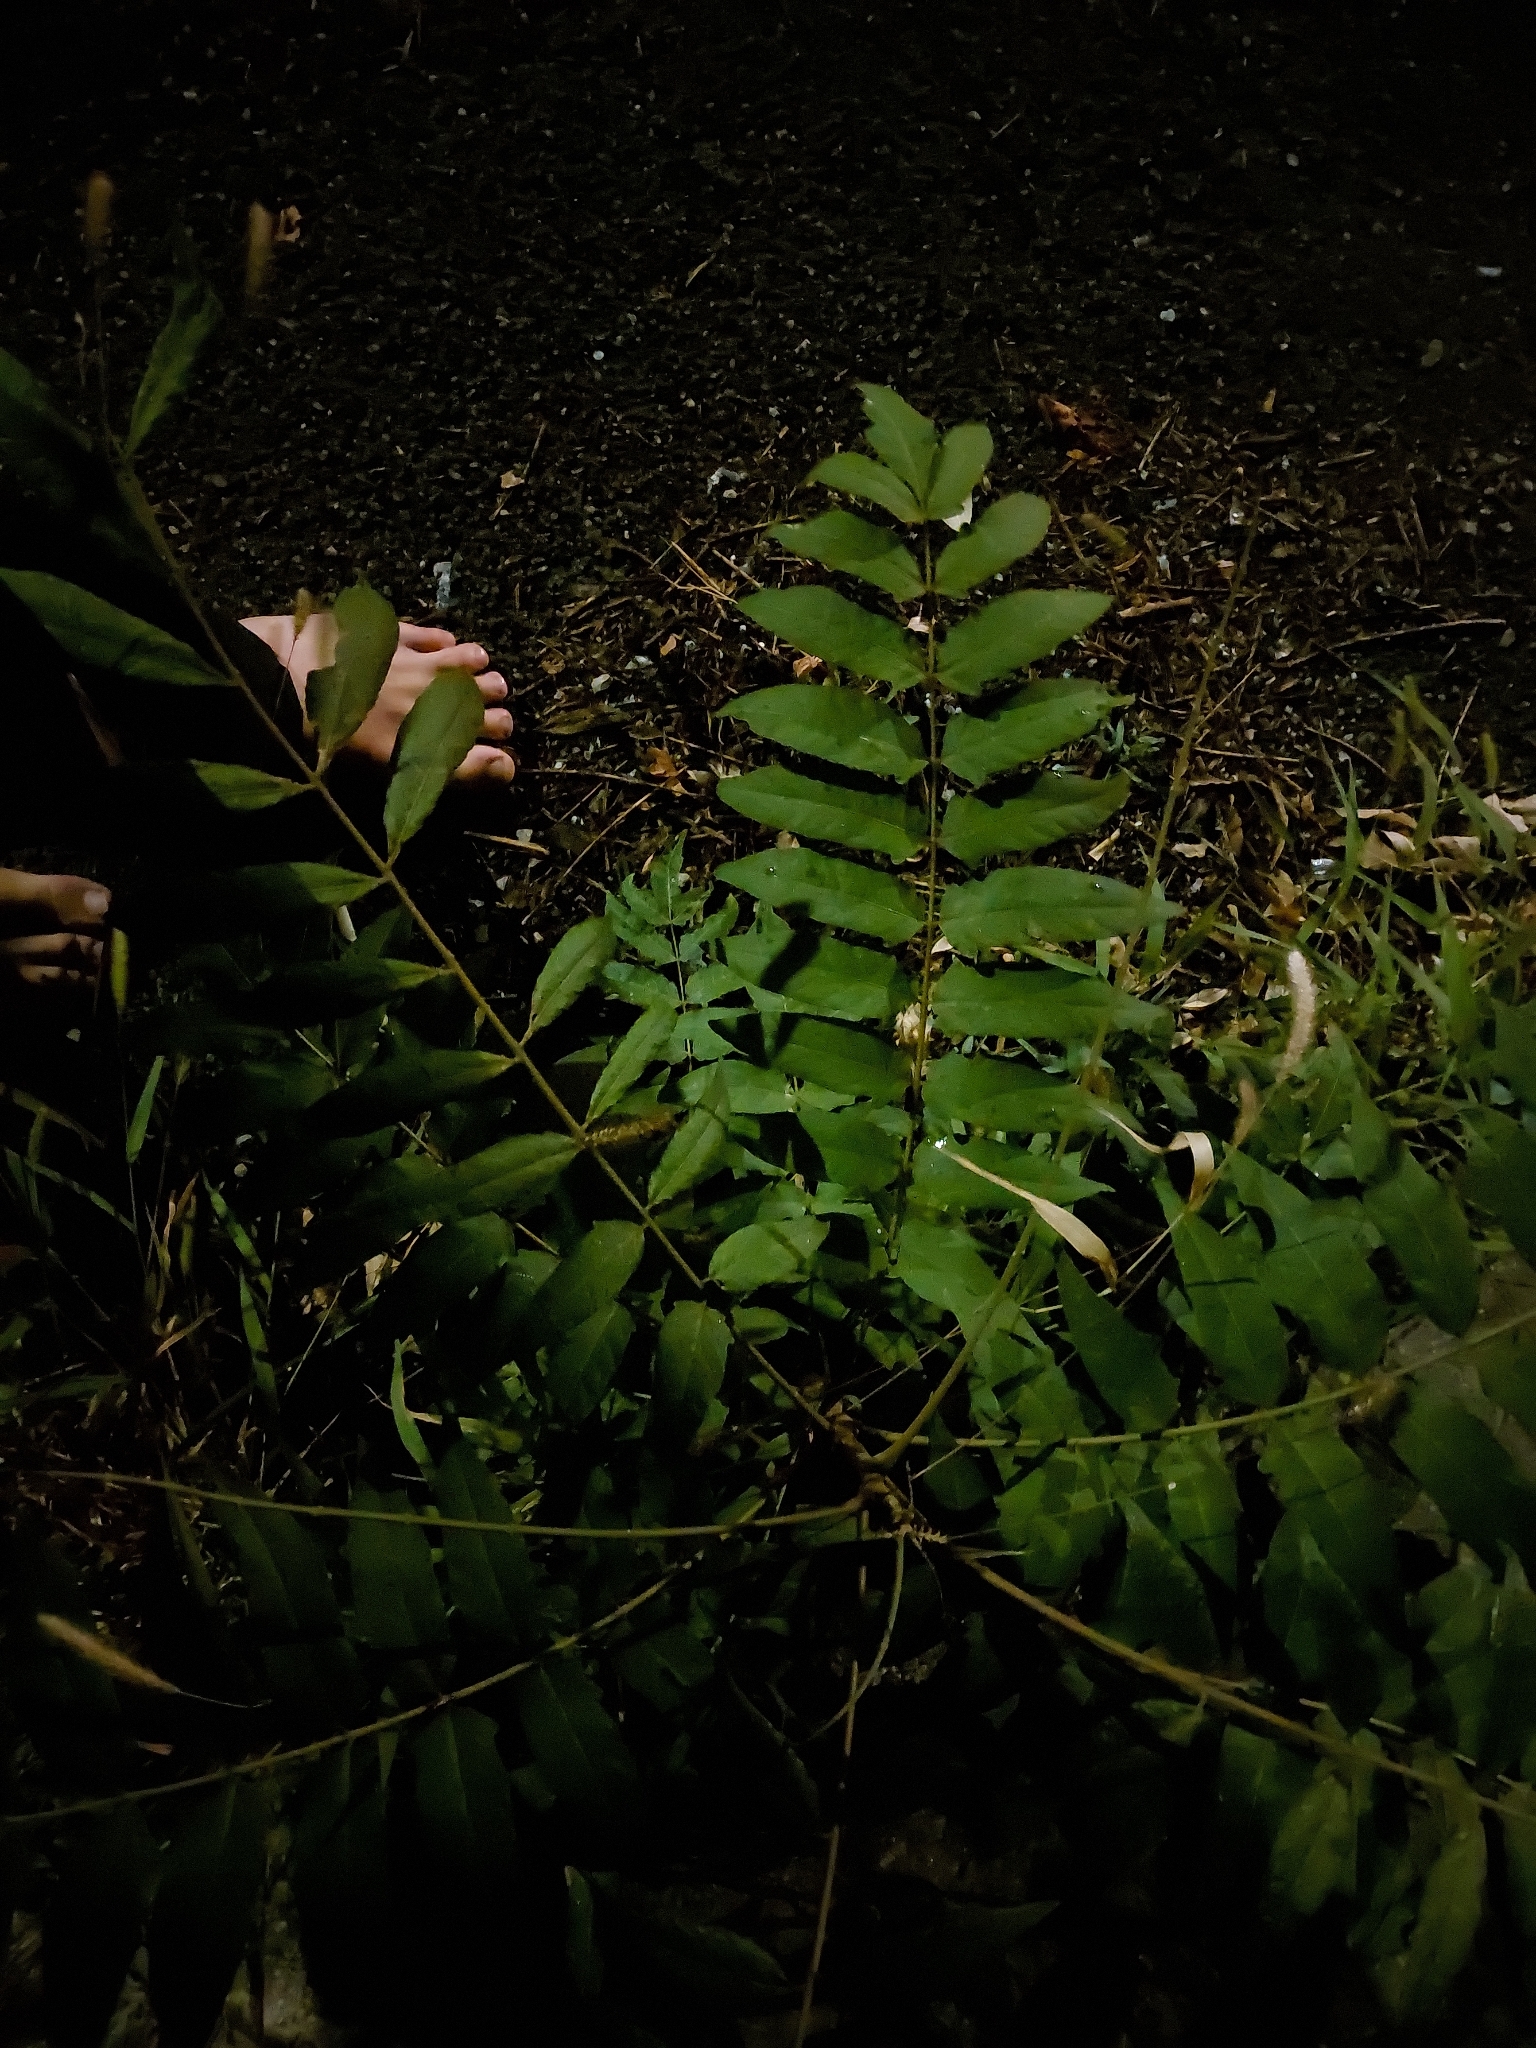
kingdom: Plantae
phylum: Tracheophyta
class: Magnoliopsida
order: Sapindales
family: Simaroubaceae
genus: Ailanthus
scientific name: Ailanthus altissima
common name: Tree-of-heaven
